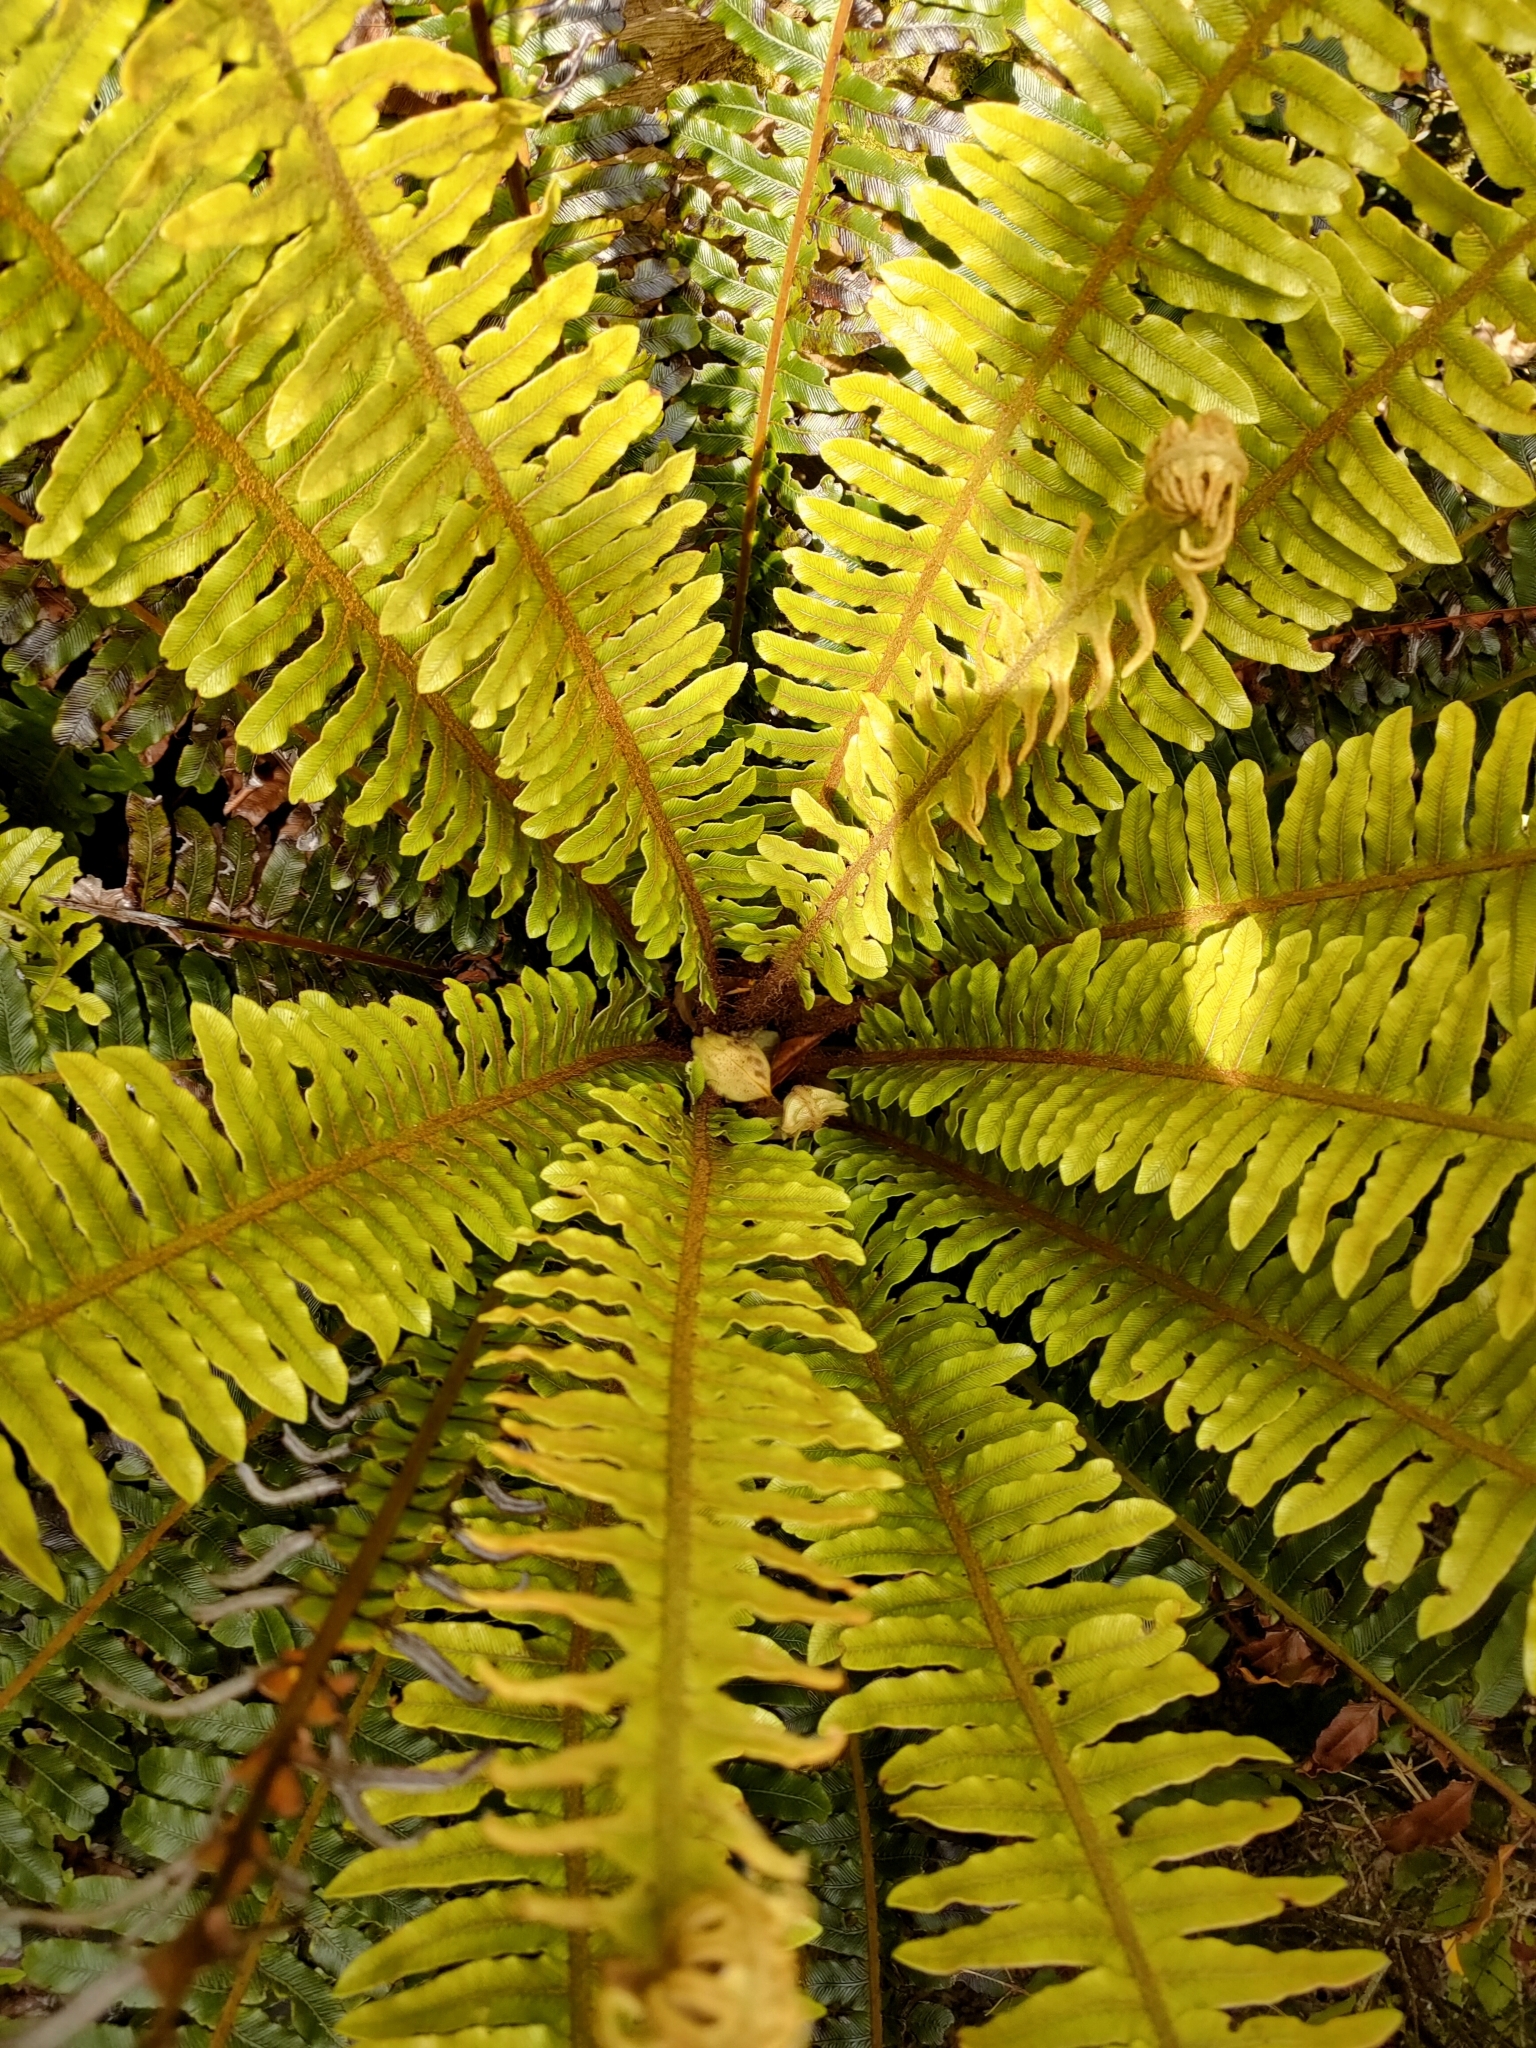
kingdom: Plantae
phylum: Tracheophyta
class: Polypodiopsida
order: Polypodiales
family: Blechnaceae
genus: Lomaria
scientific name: Lomaria discolor
